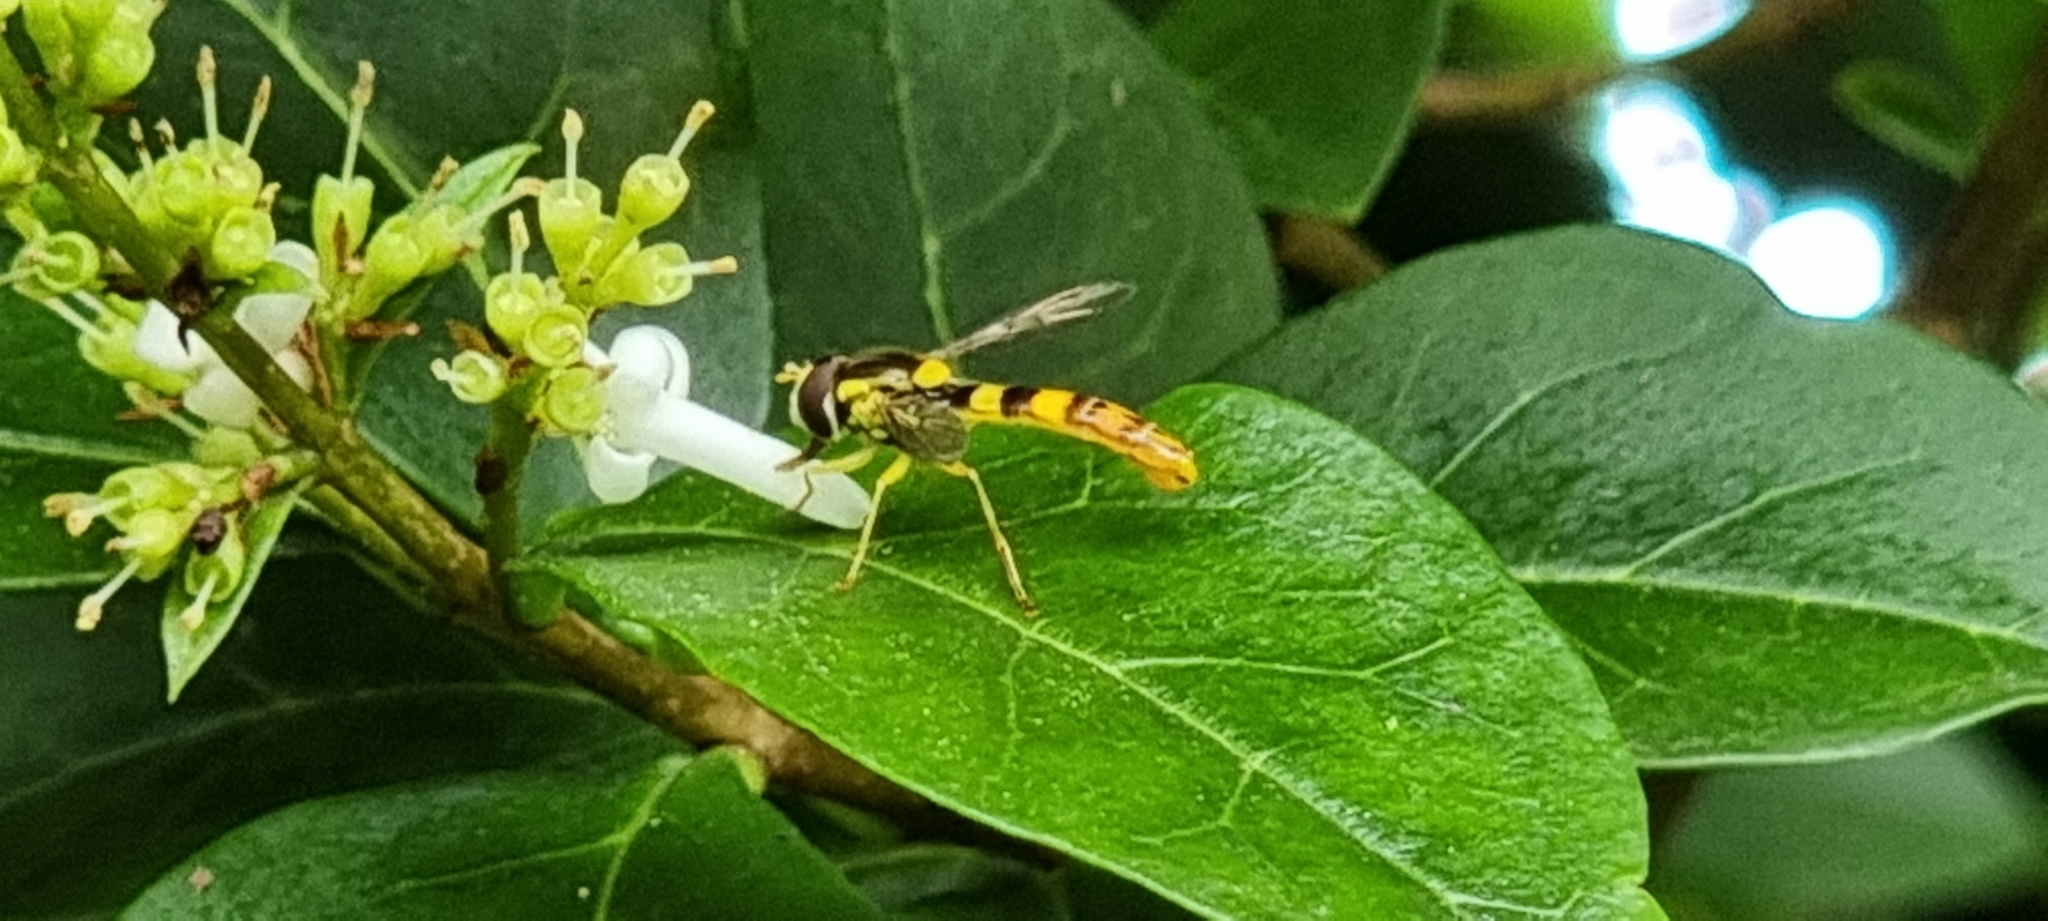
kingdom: Animalia
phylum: Arthropoda
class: Insecta
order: Diptera
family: Syrphidae
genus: Sphaerophoria
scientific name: Sphaerophoria scripta
